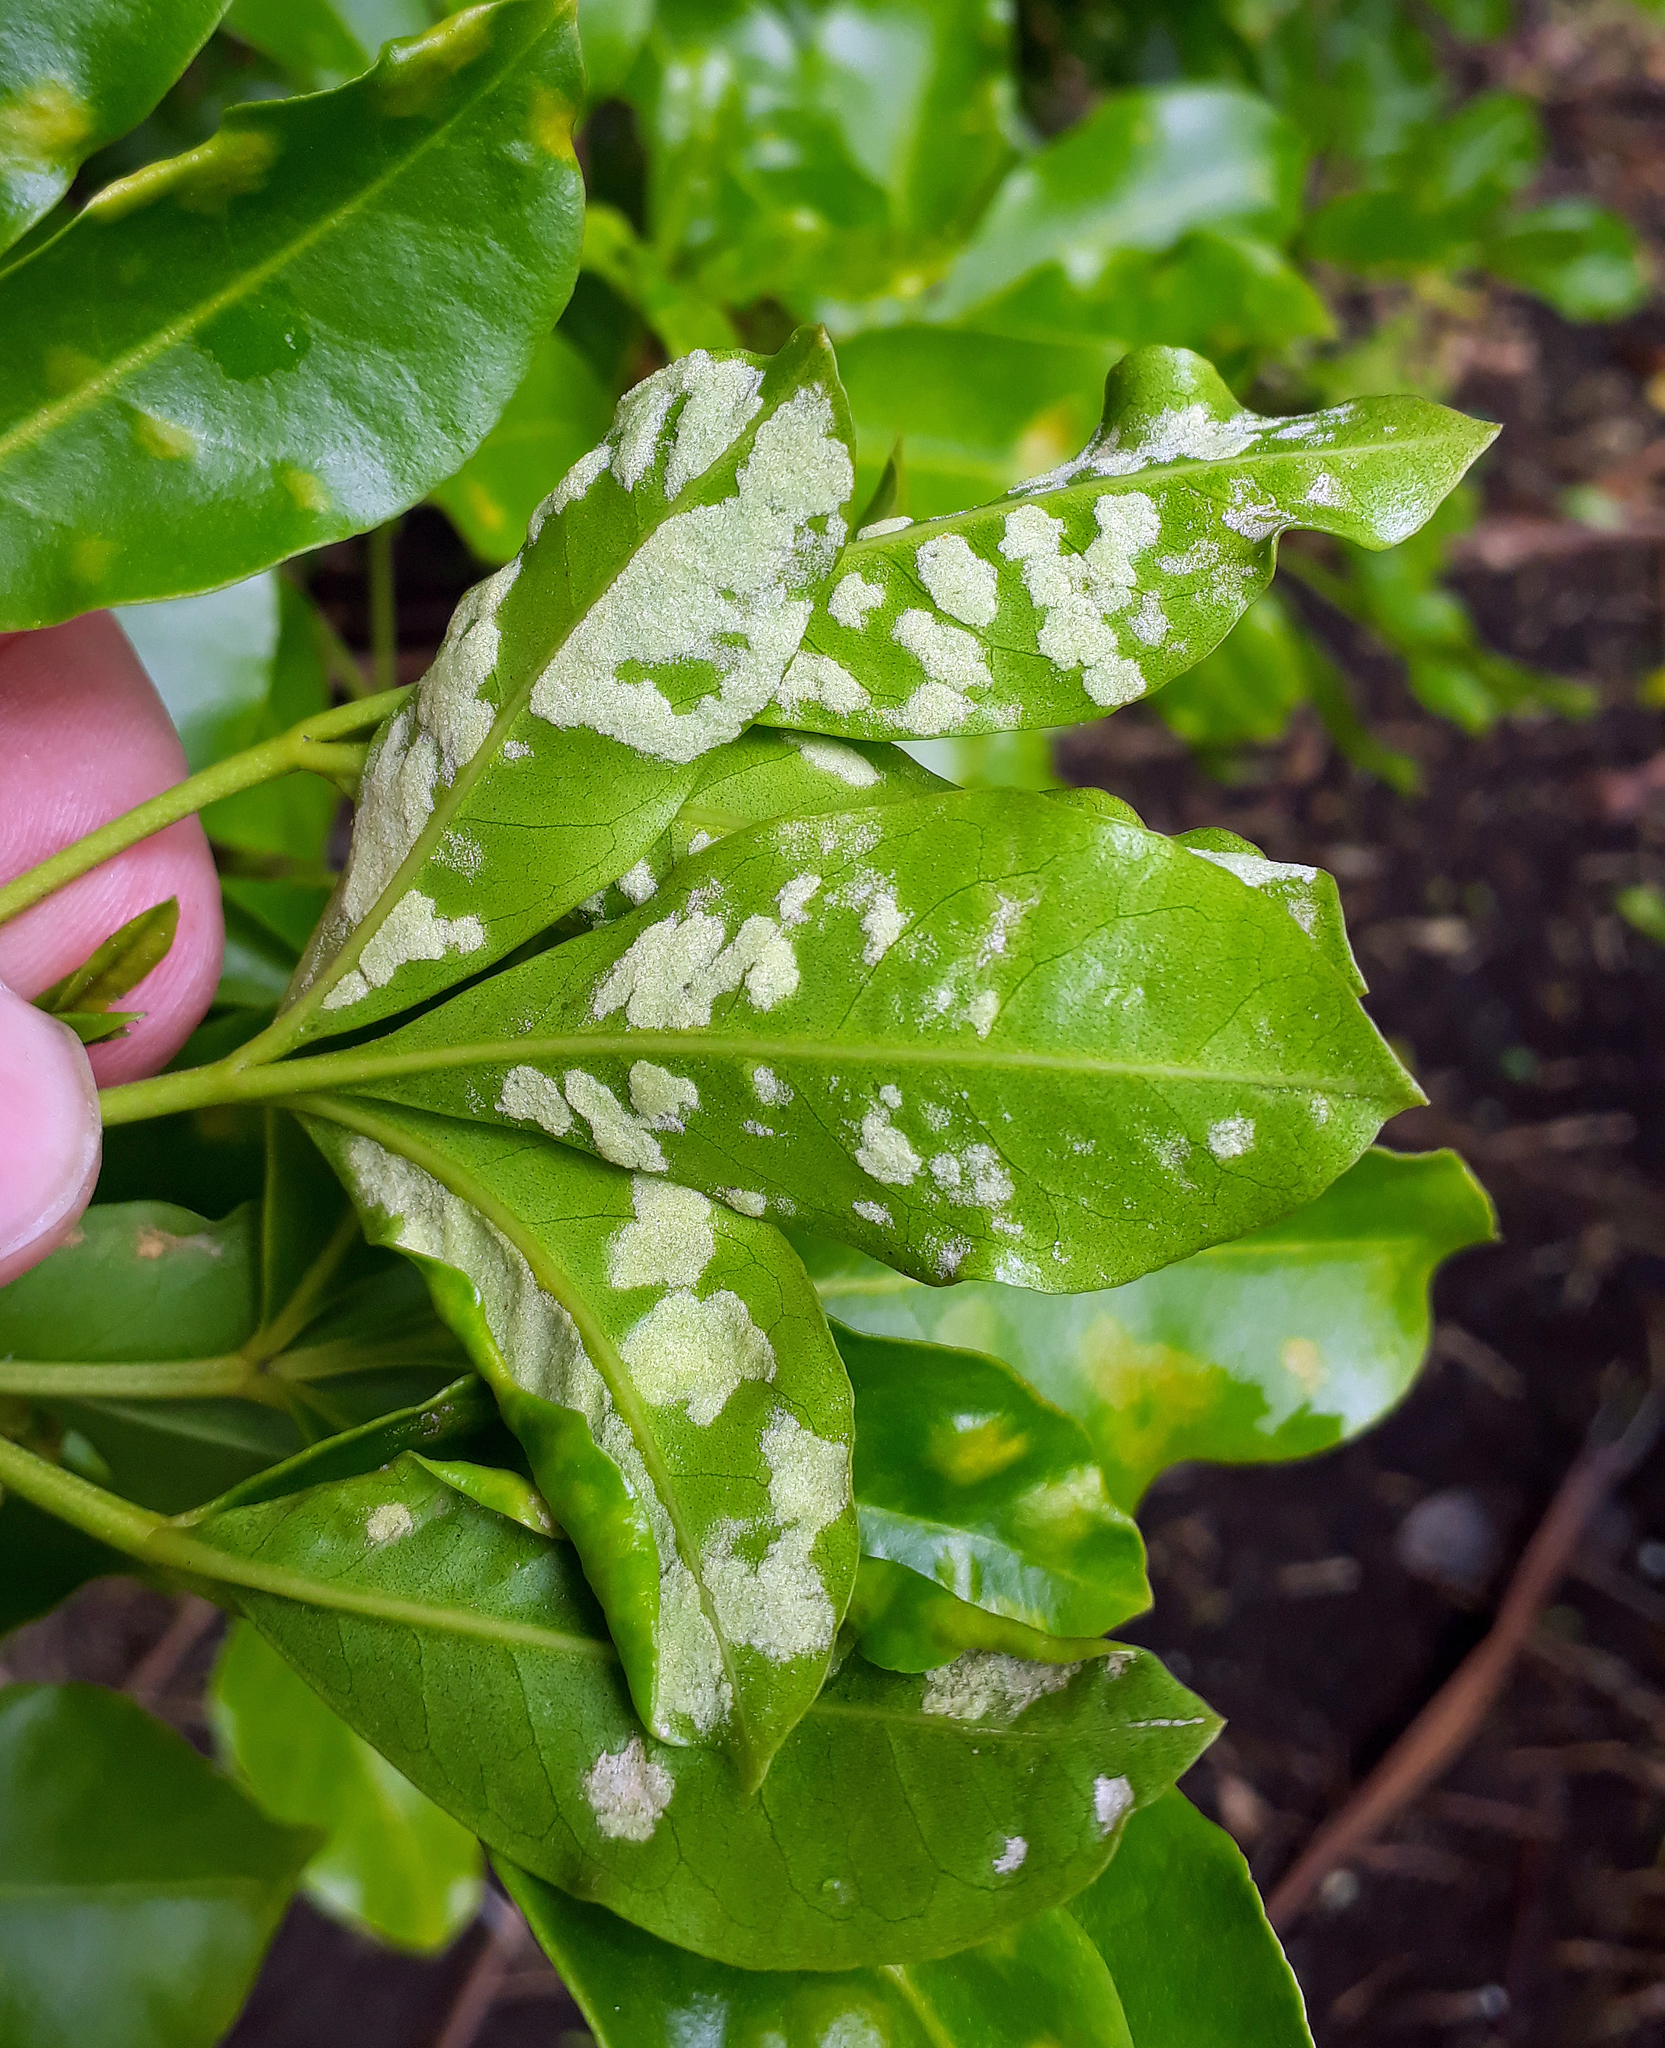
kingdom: Animalia
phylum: Arthropoda
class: Arachnida
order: Trombidiformes
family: Eriophyidae
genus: Aceria
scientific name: Aceria melicopis
